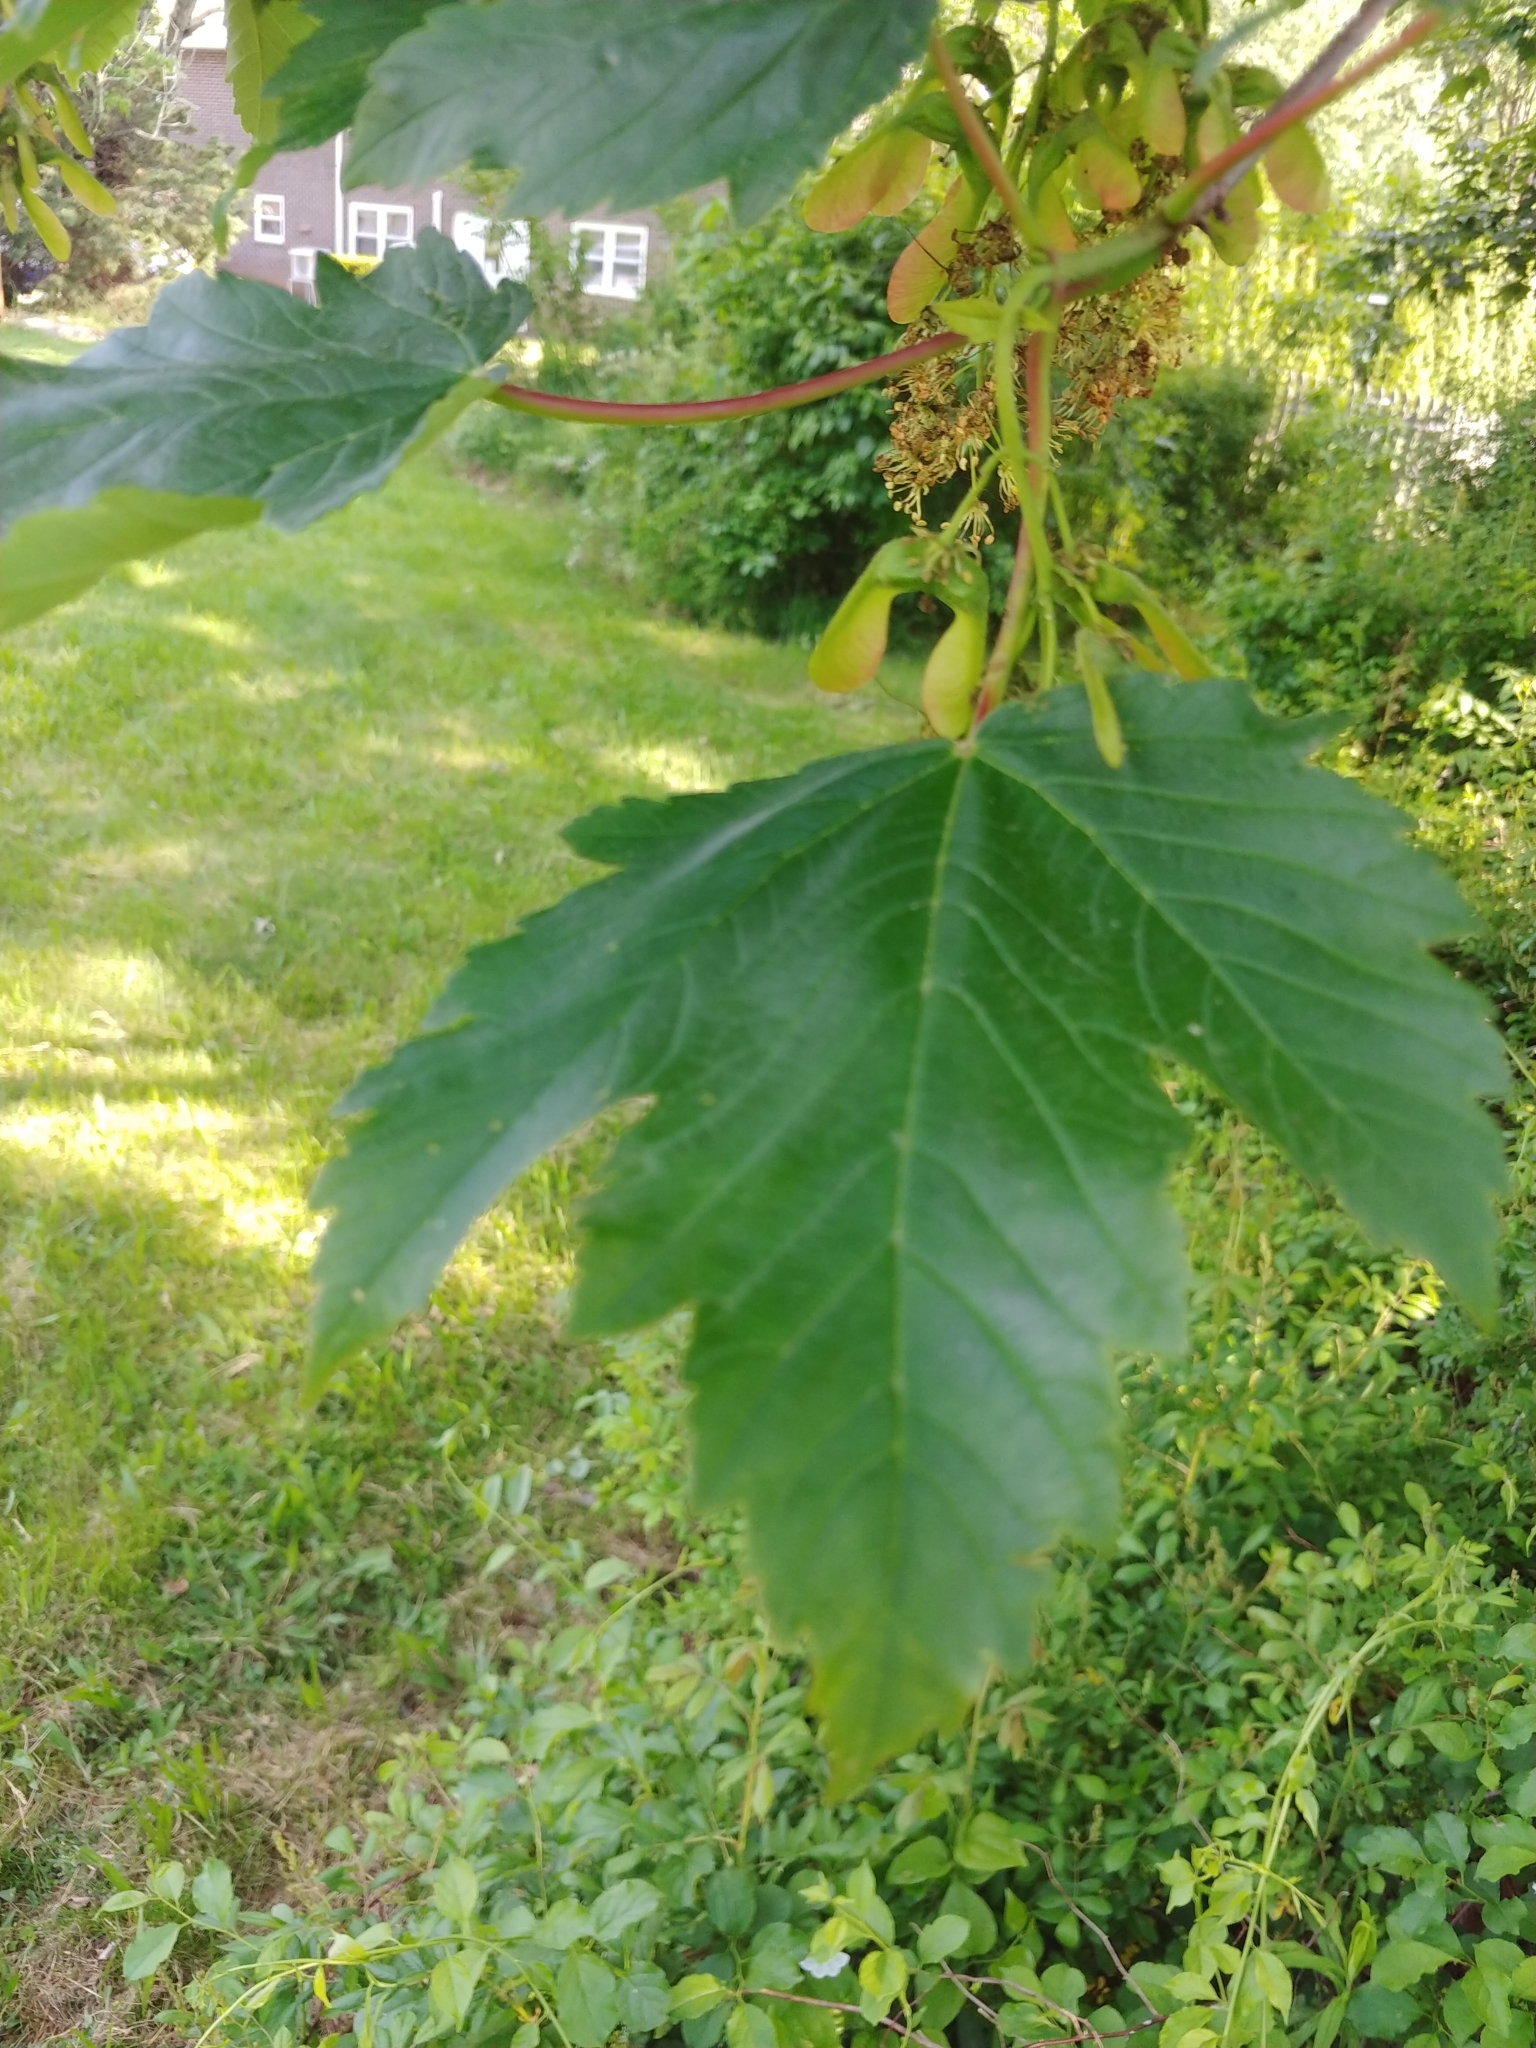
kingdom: Plantae
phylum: Tracheophyta
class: Magnoliopsida
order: Sapindales
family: Sapindaceae
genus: Acer
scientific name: Acer pseudoplatanus
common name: Sycamore
